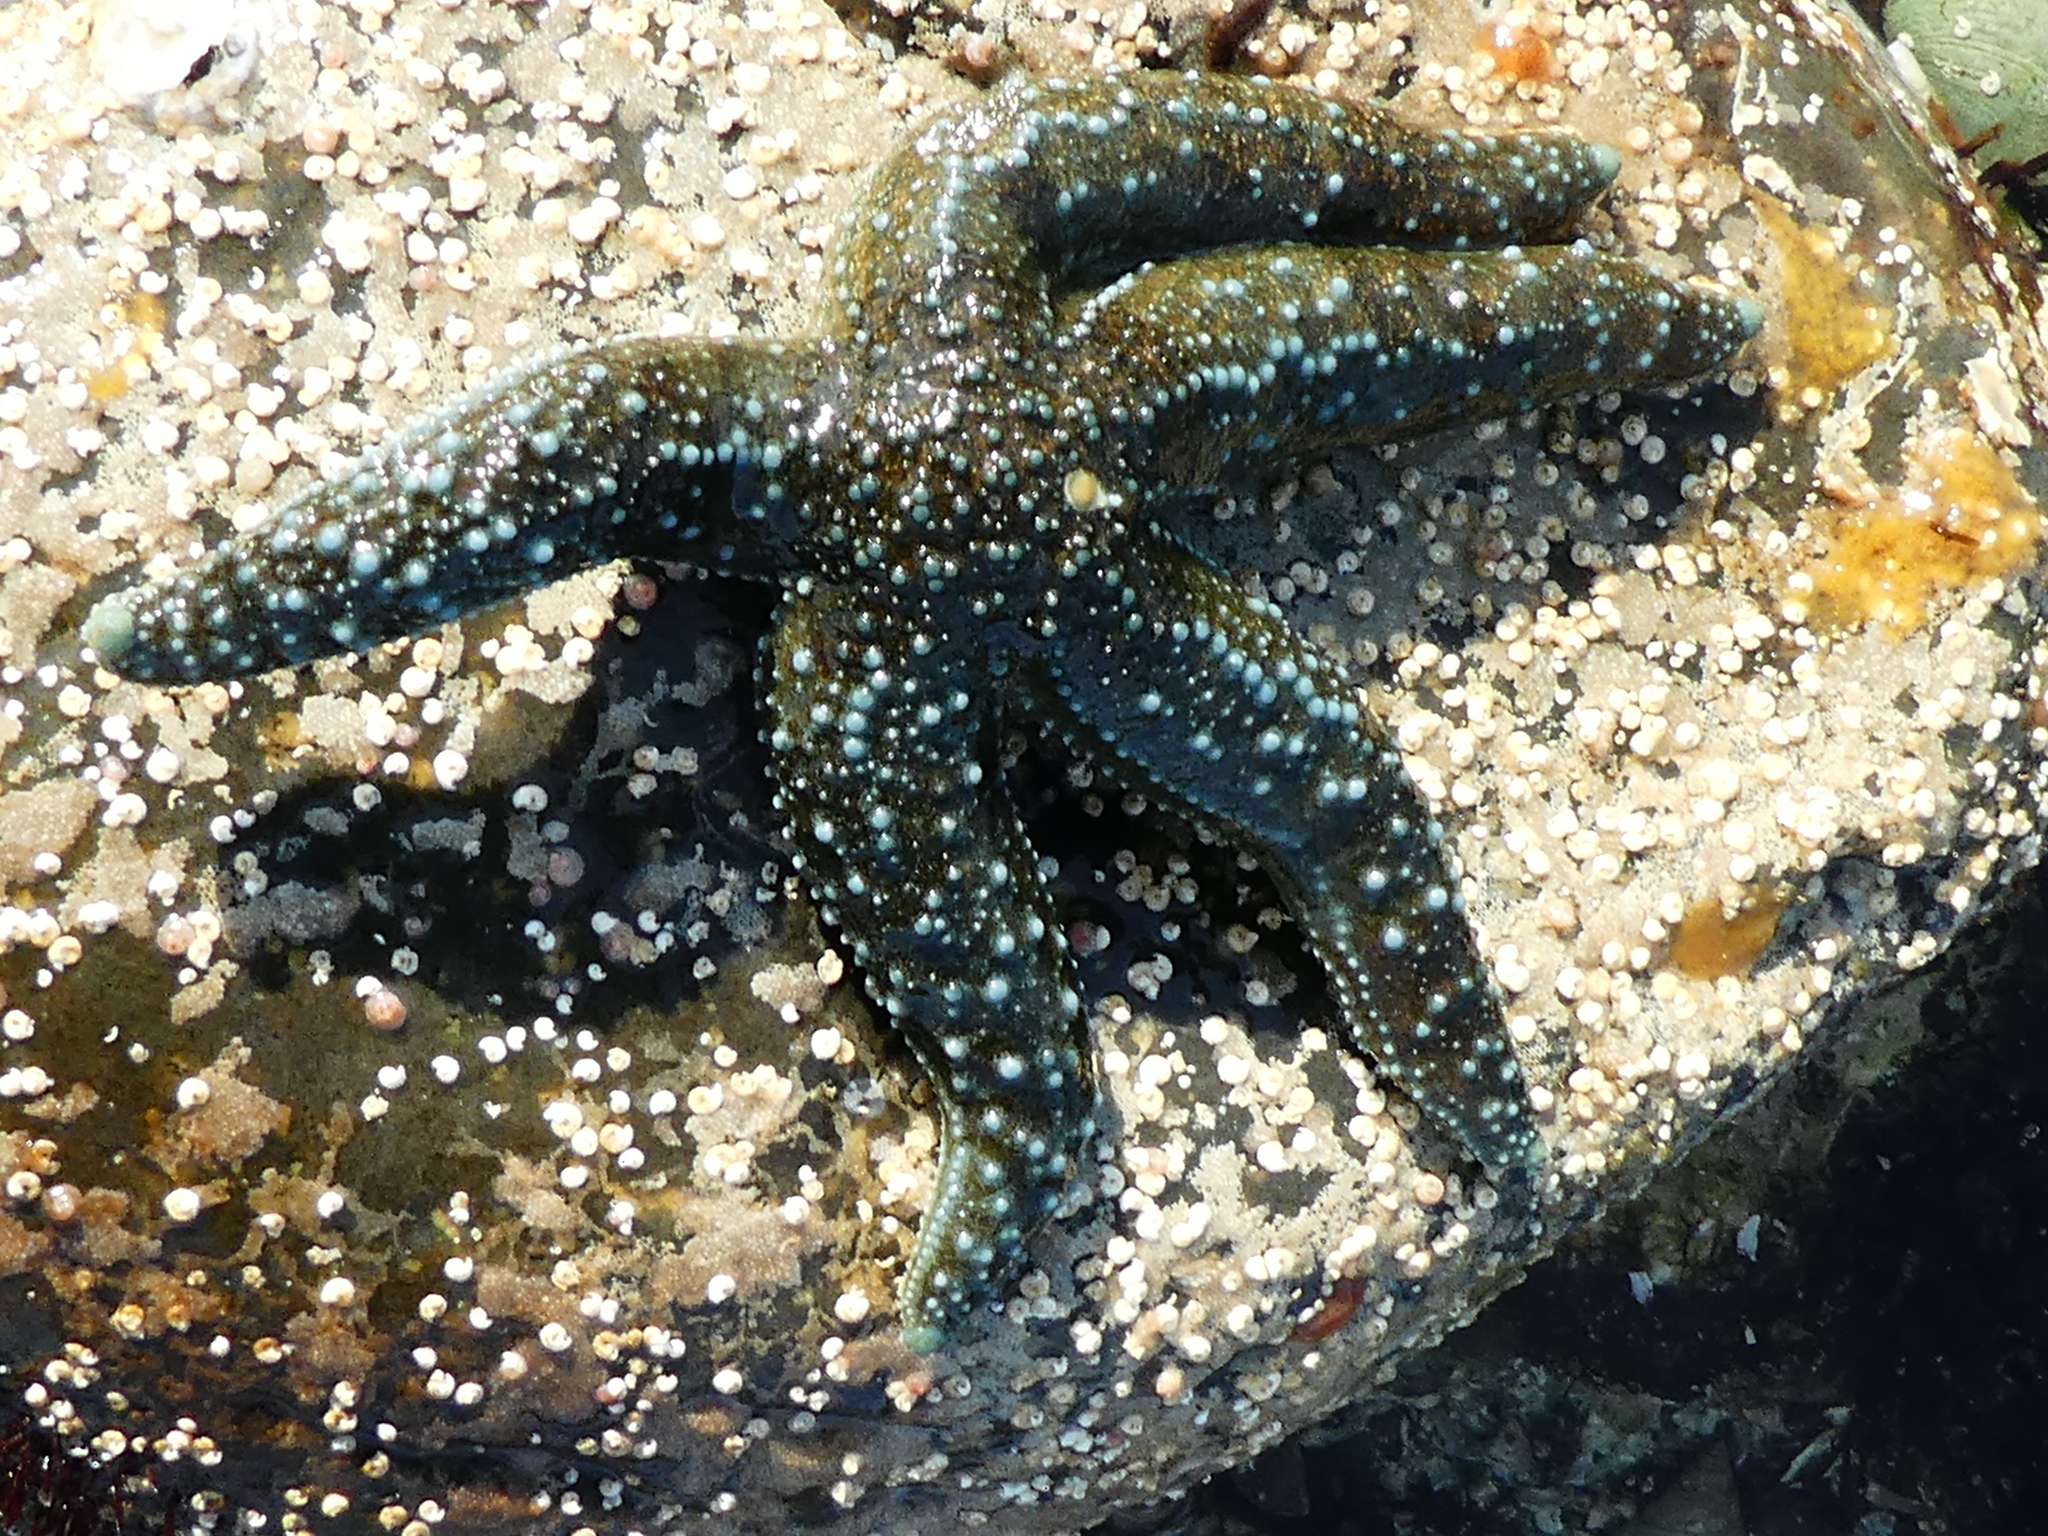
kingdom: Animalia
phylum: Echinodermata
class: Asteroidea
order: Forcipulatida
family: Asteriidae
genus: Evasterias
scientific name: Evasterias troschelii
